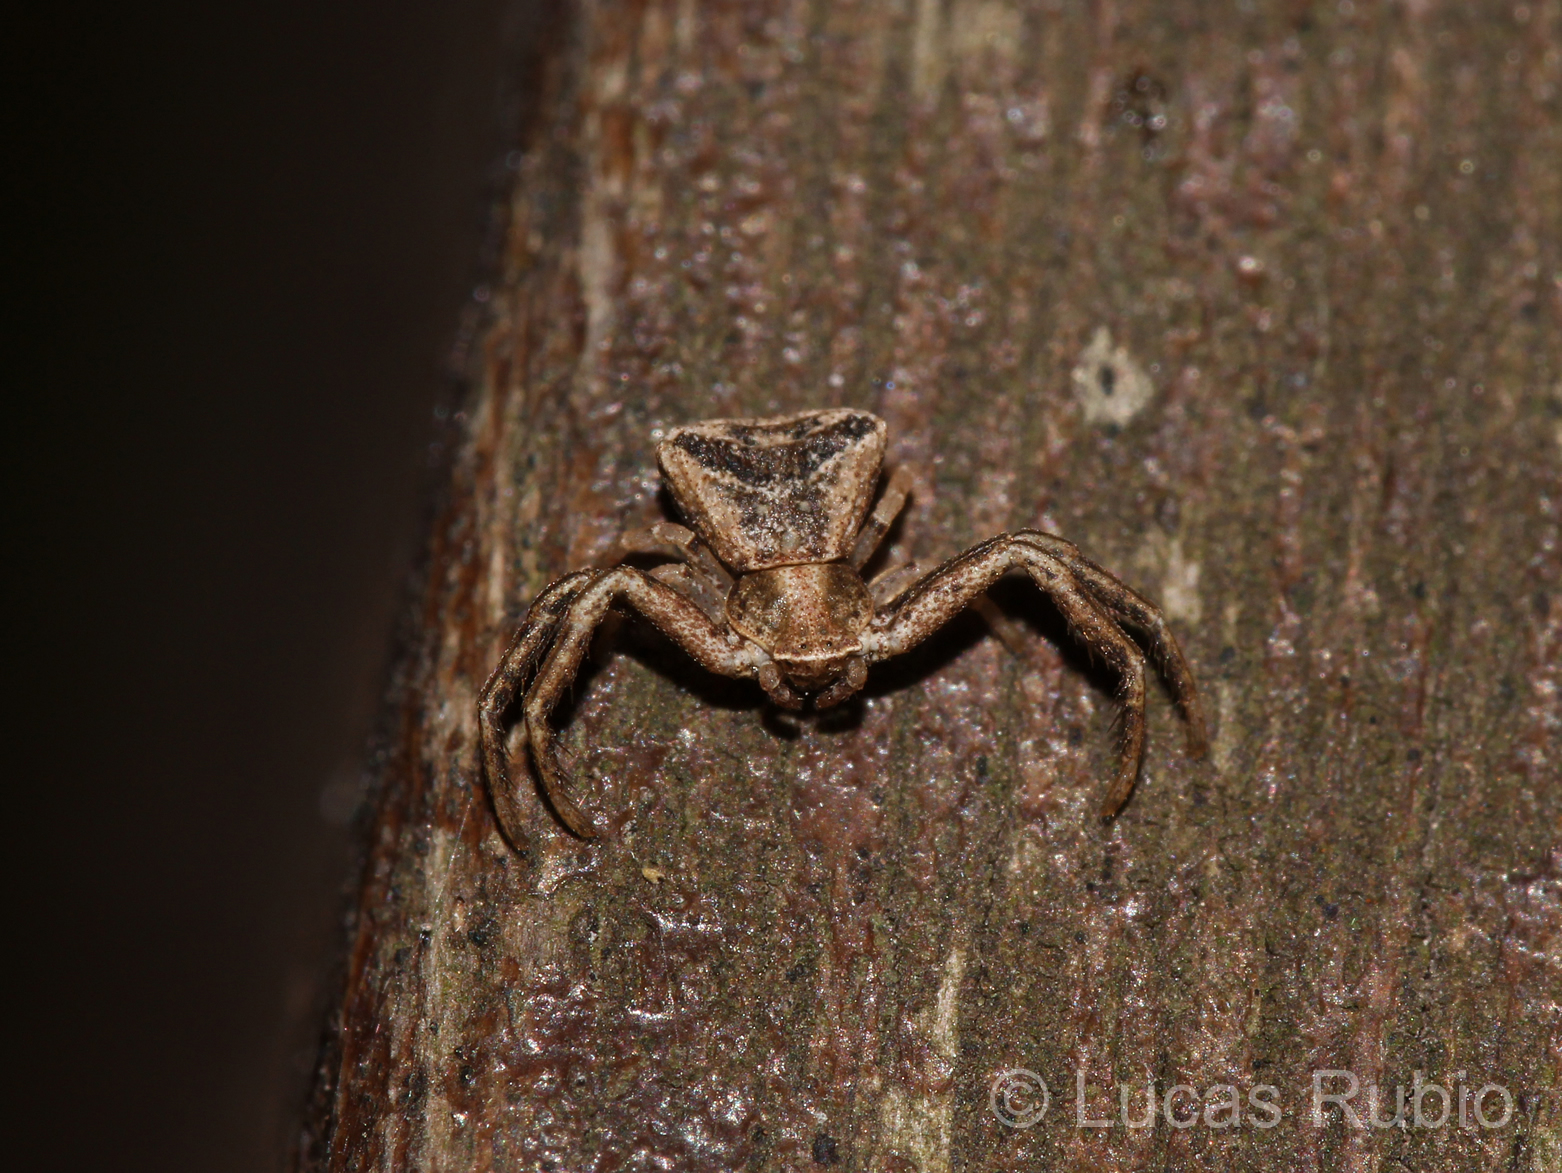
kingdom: Animalia
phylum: Arthropoda
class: Arachnida
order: Araneae
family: Thomisidae
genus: Uraarachne
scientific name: Uraarachne cornuta
